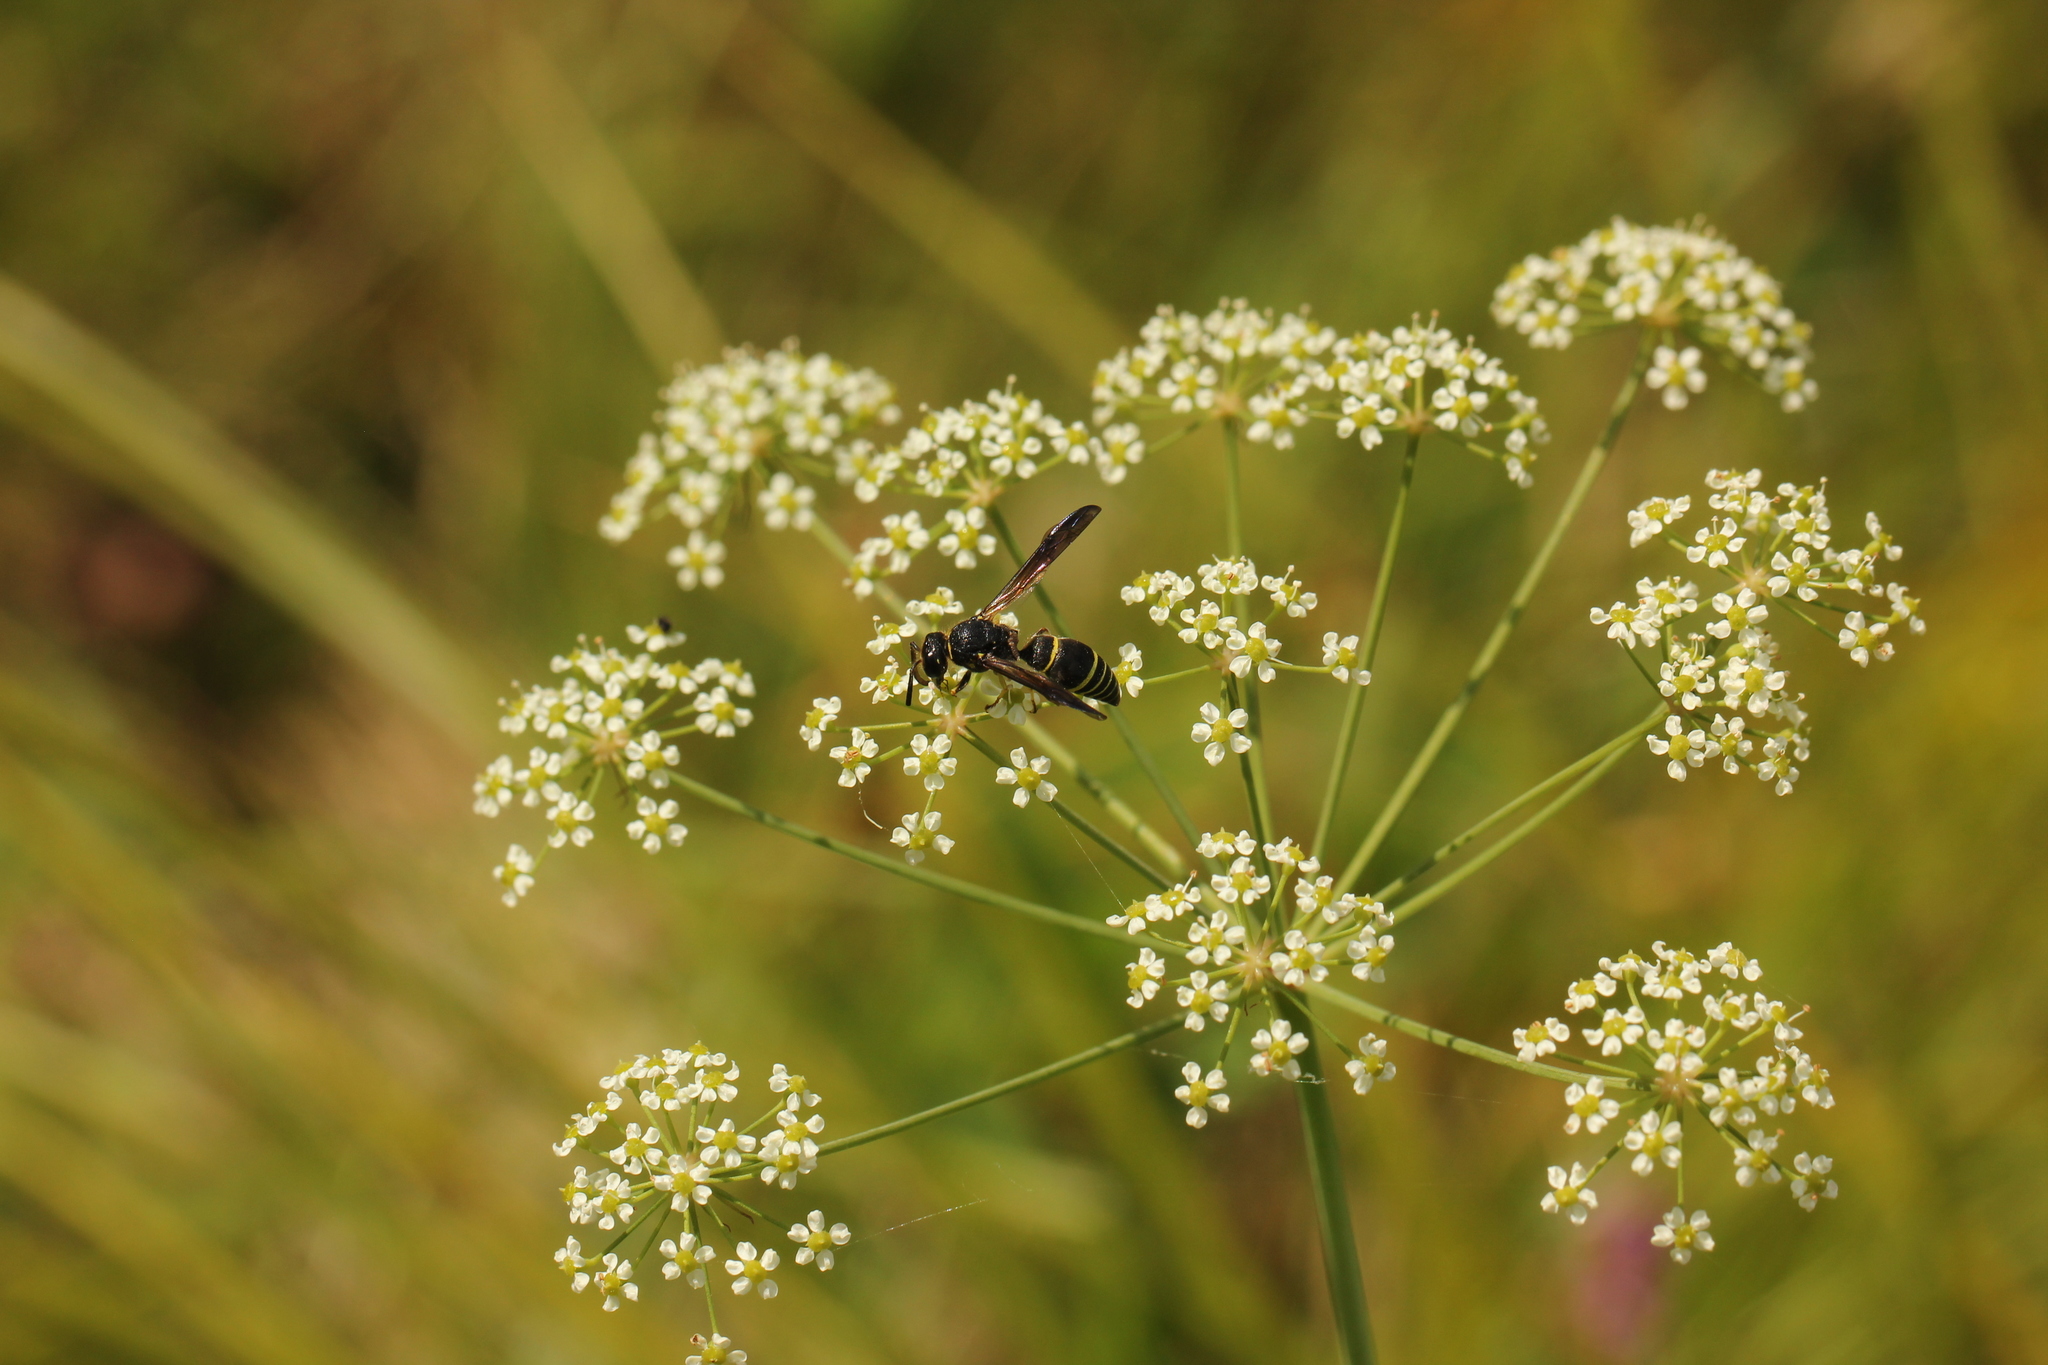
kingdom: Animalia
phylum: Arthropoda
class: Insecta
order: Hymenoptera
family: Vespidae
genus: Ancistrocerus
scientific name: Ancistrocerus
